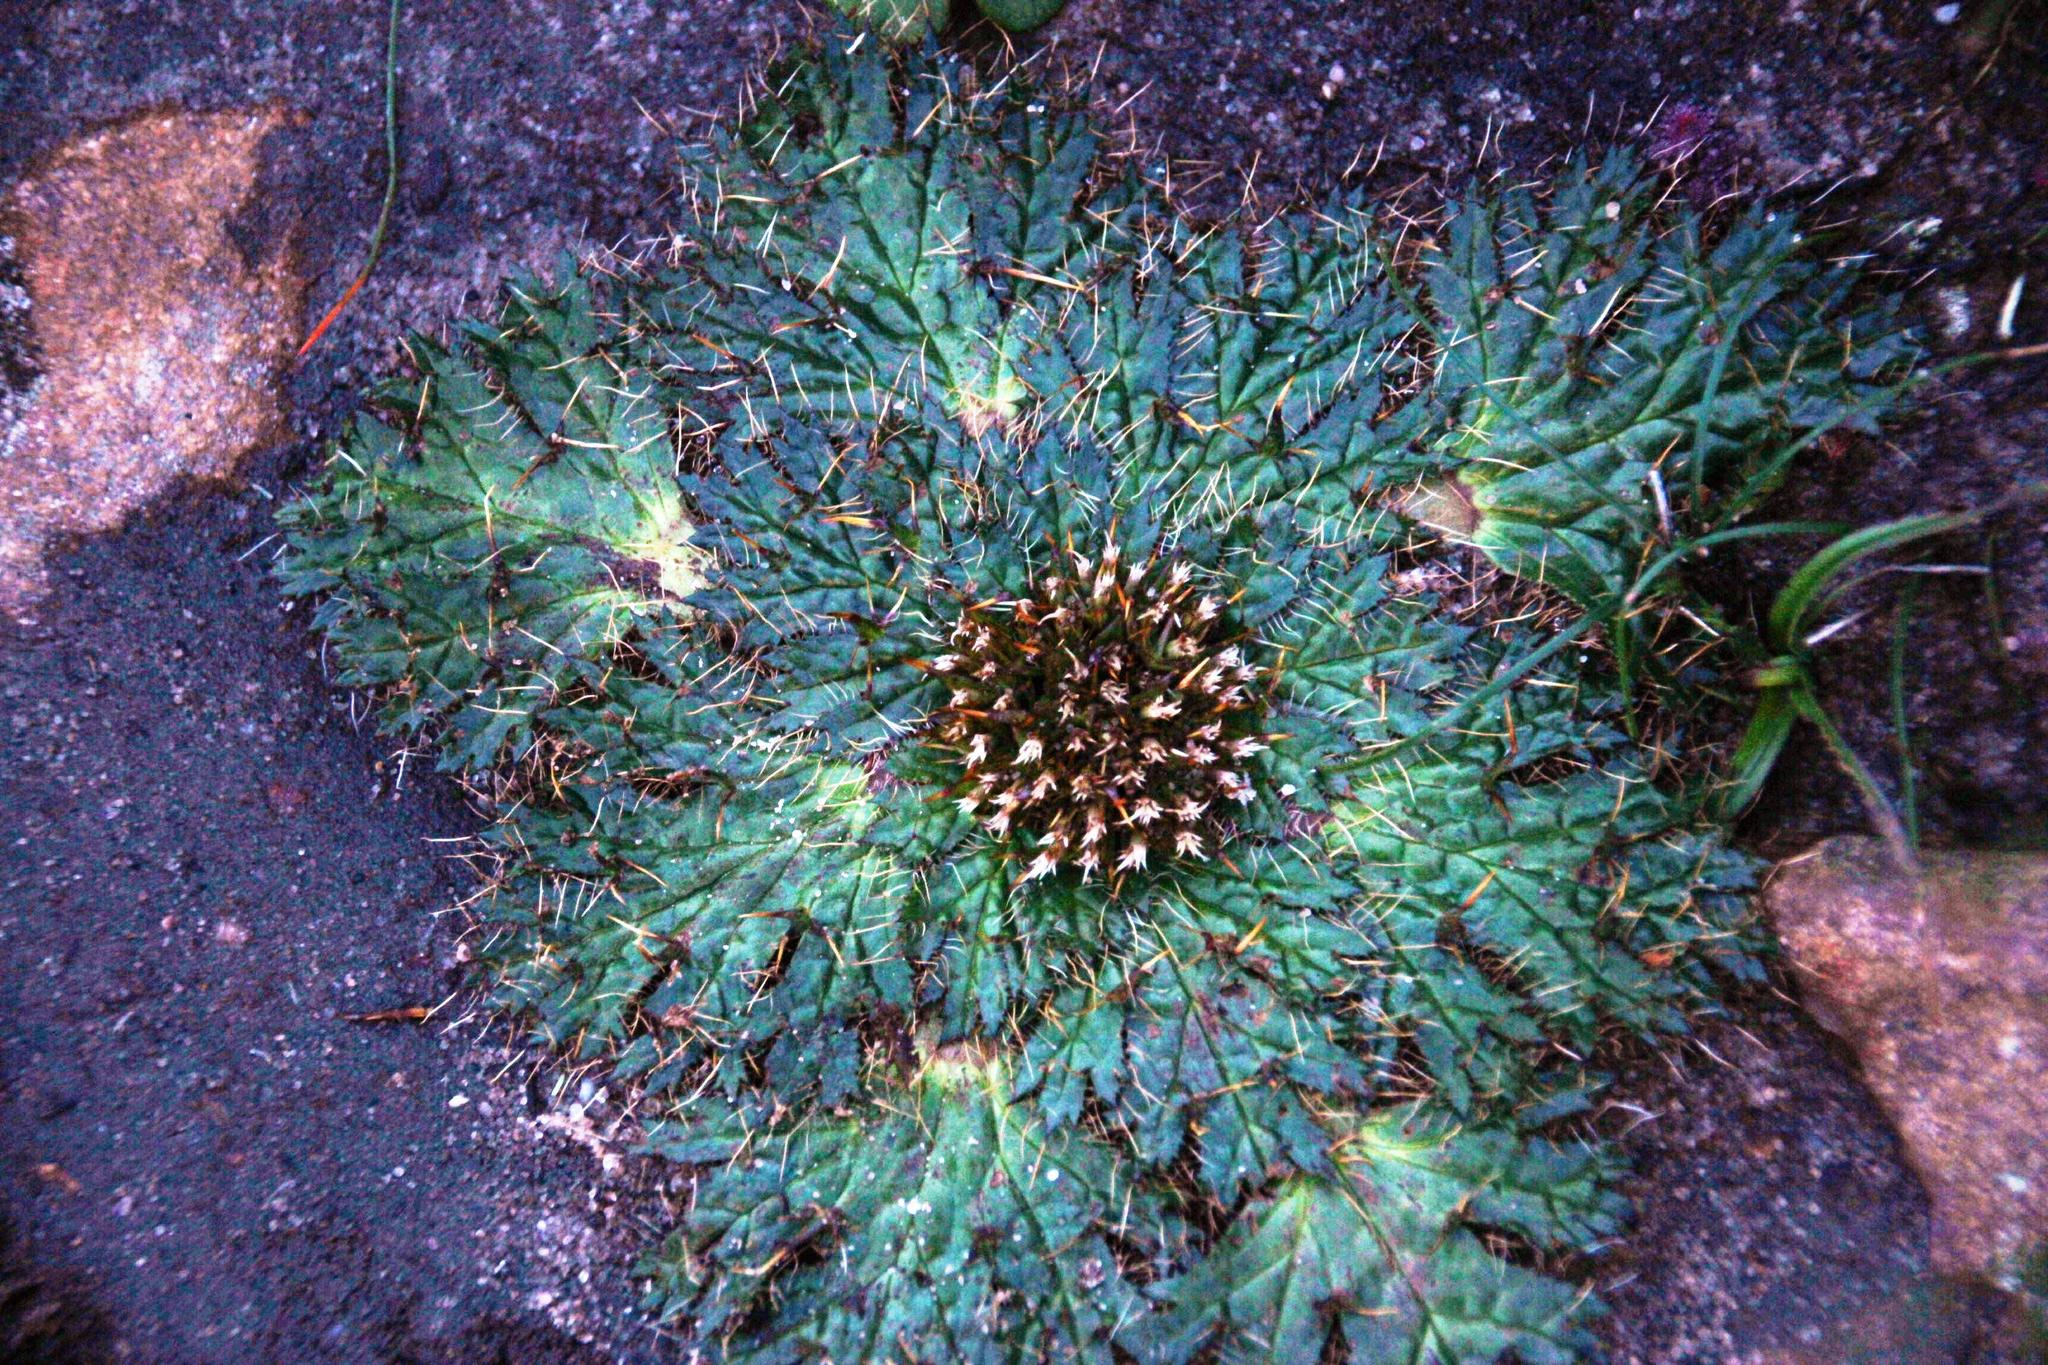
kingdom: Plantae
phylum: Tracheophyta
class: Magnoliopsida
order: Apiales
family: Apiaceae
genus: Arctopus
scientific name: Arctopus echinatus
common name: Platdoring
